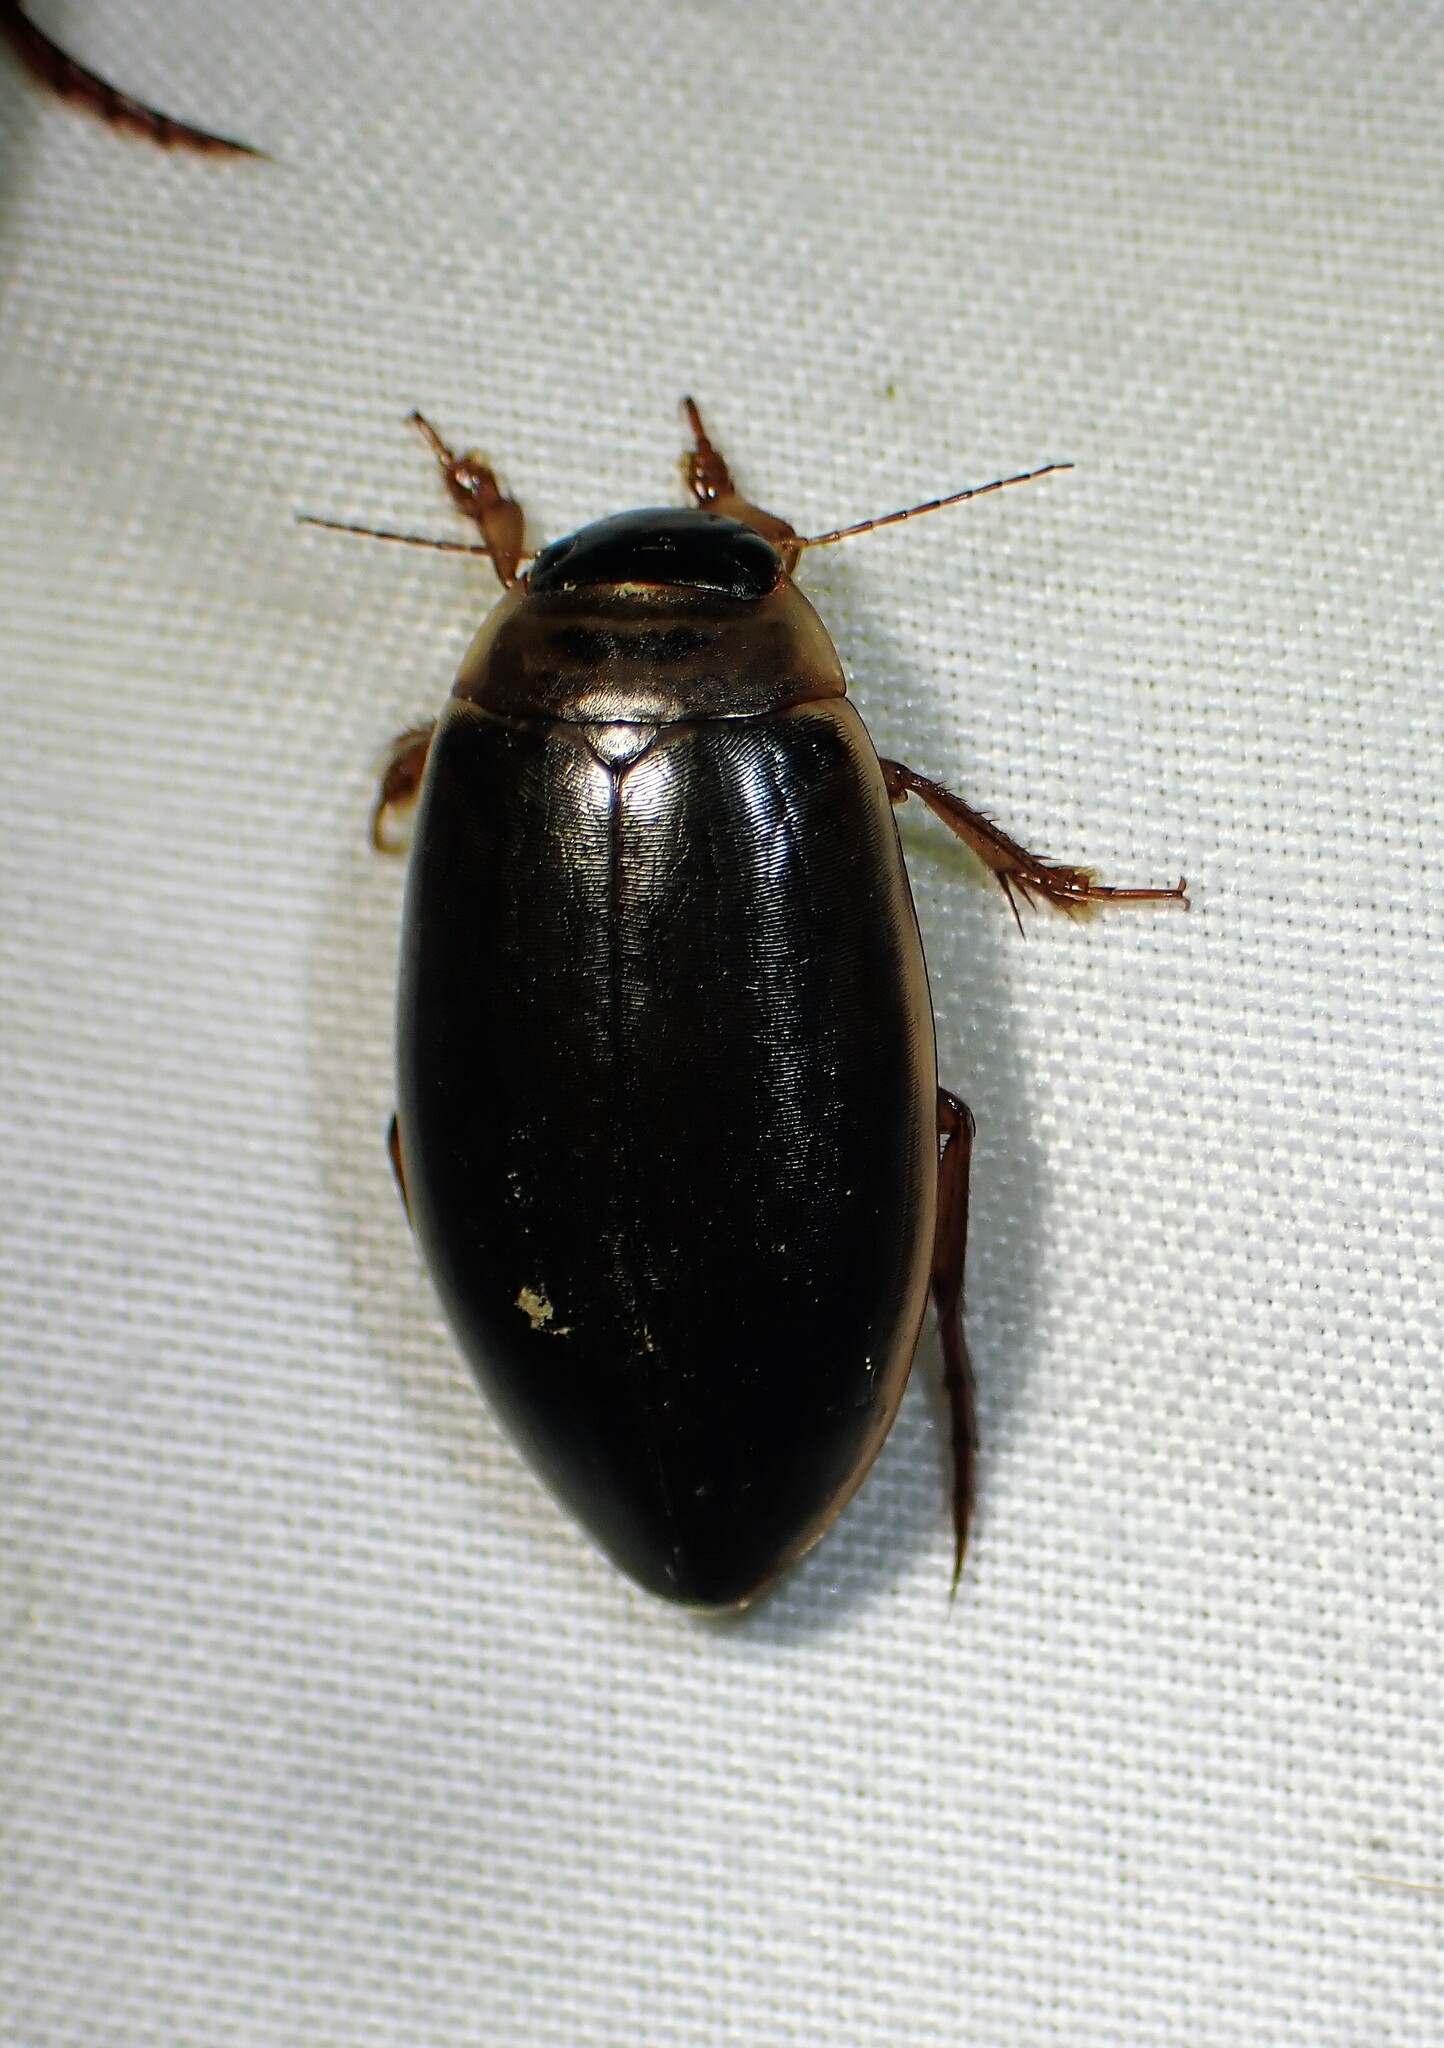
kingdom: Animalia
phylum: Arthropoda
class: Insecta
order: Coleoptera
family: Dytiscidae
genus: Colymbetes
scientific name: Colymbetes sculptilis
